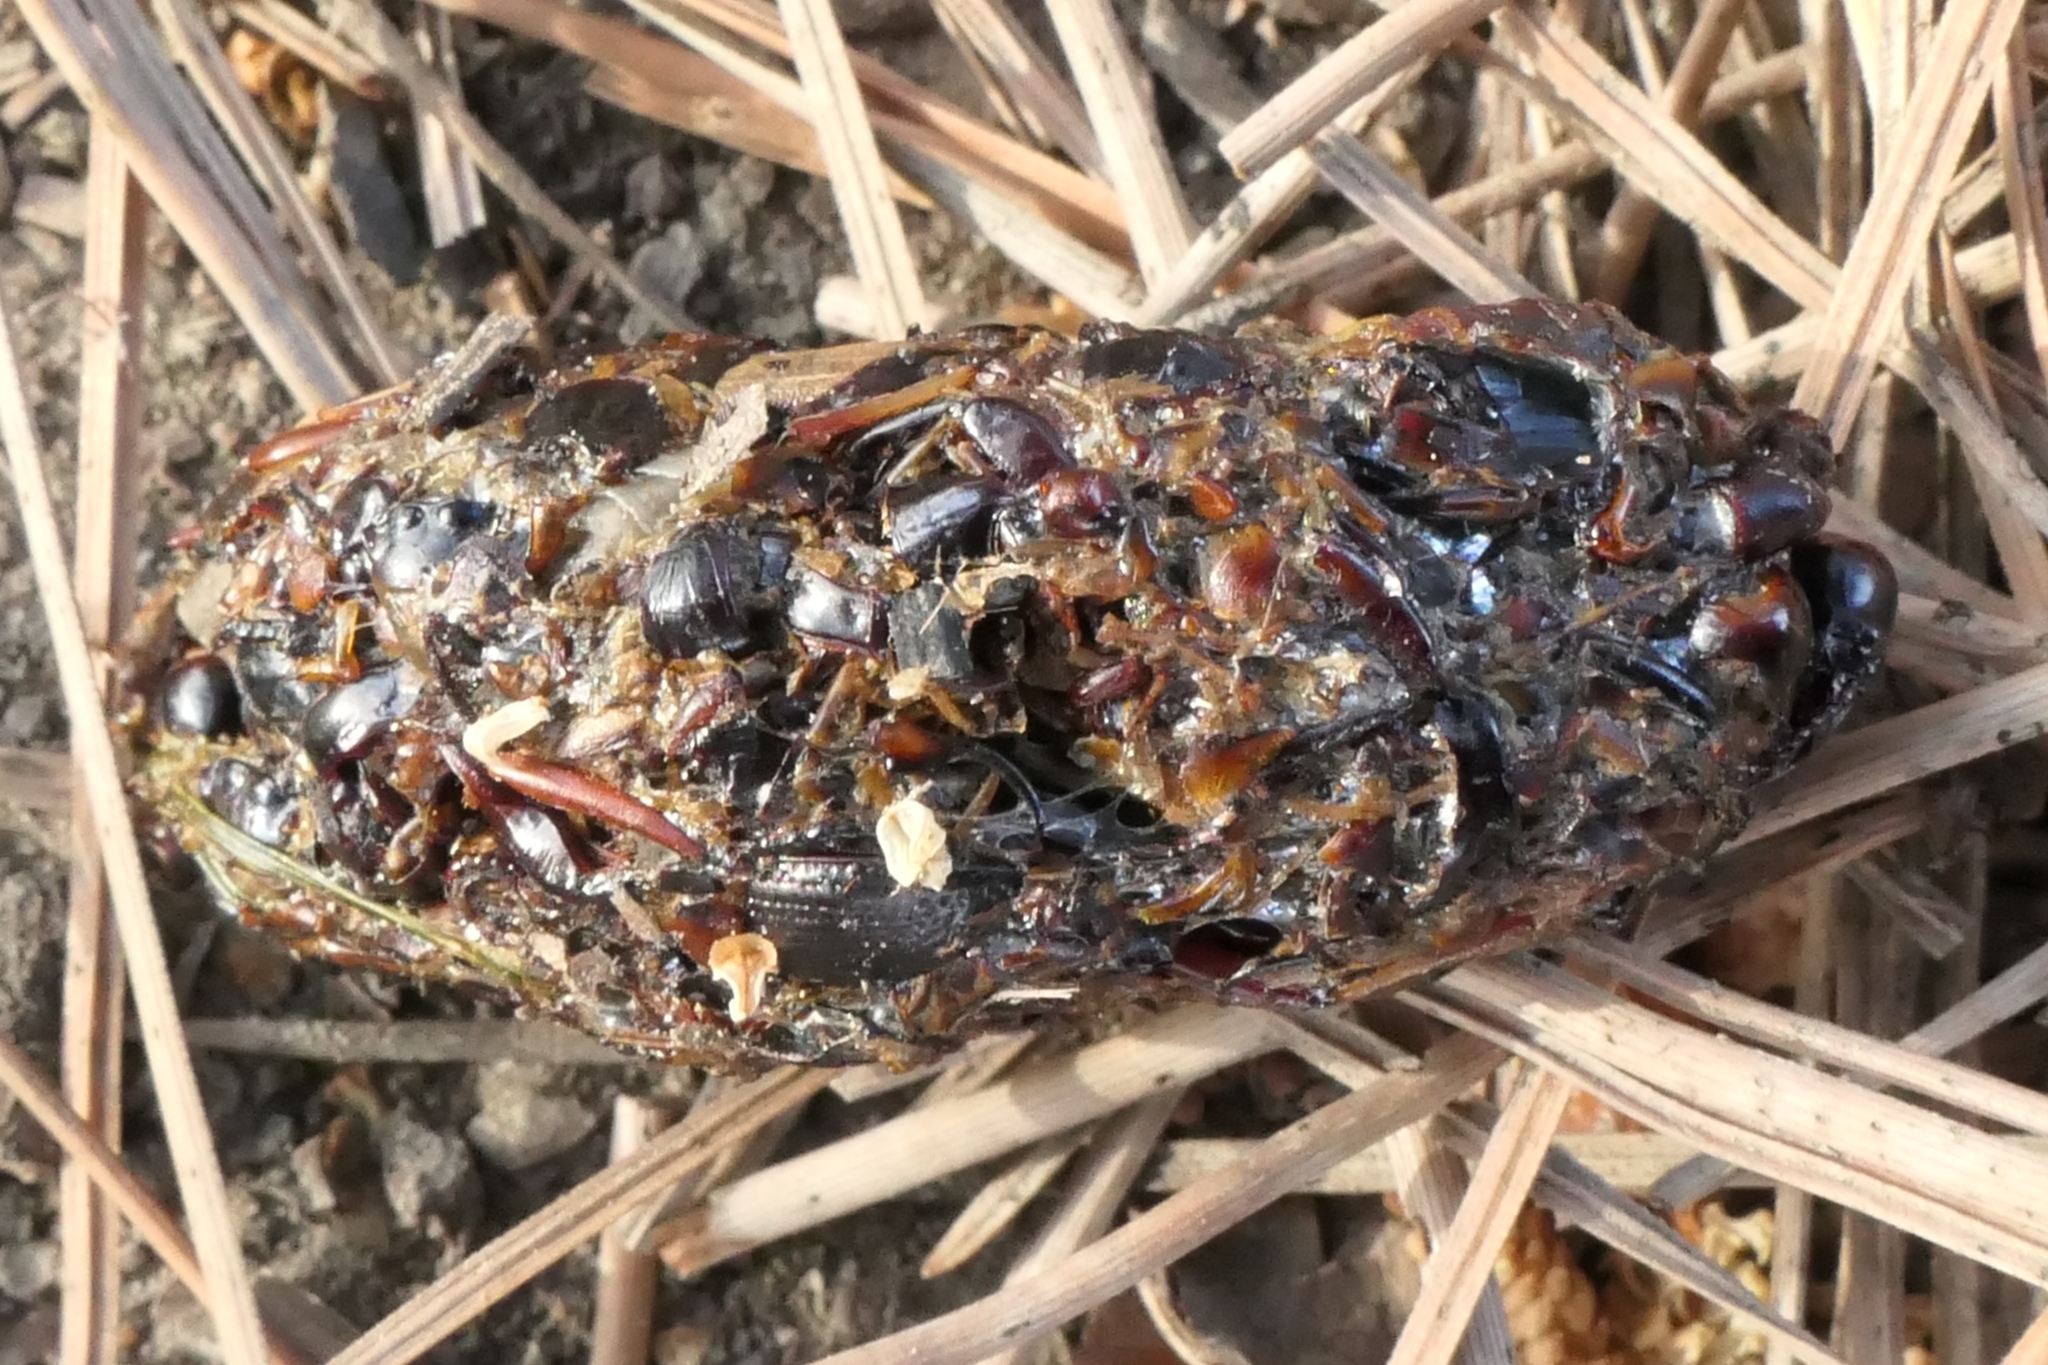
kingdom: Animalia
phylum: Chordata
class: Aves
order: Strigiformes
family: Strigidae
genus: Athene
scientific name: Athene noctua
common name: Little owl
